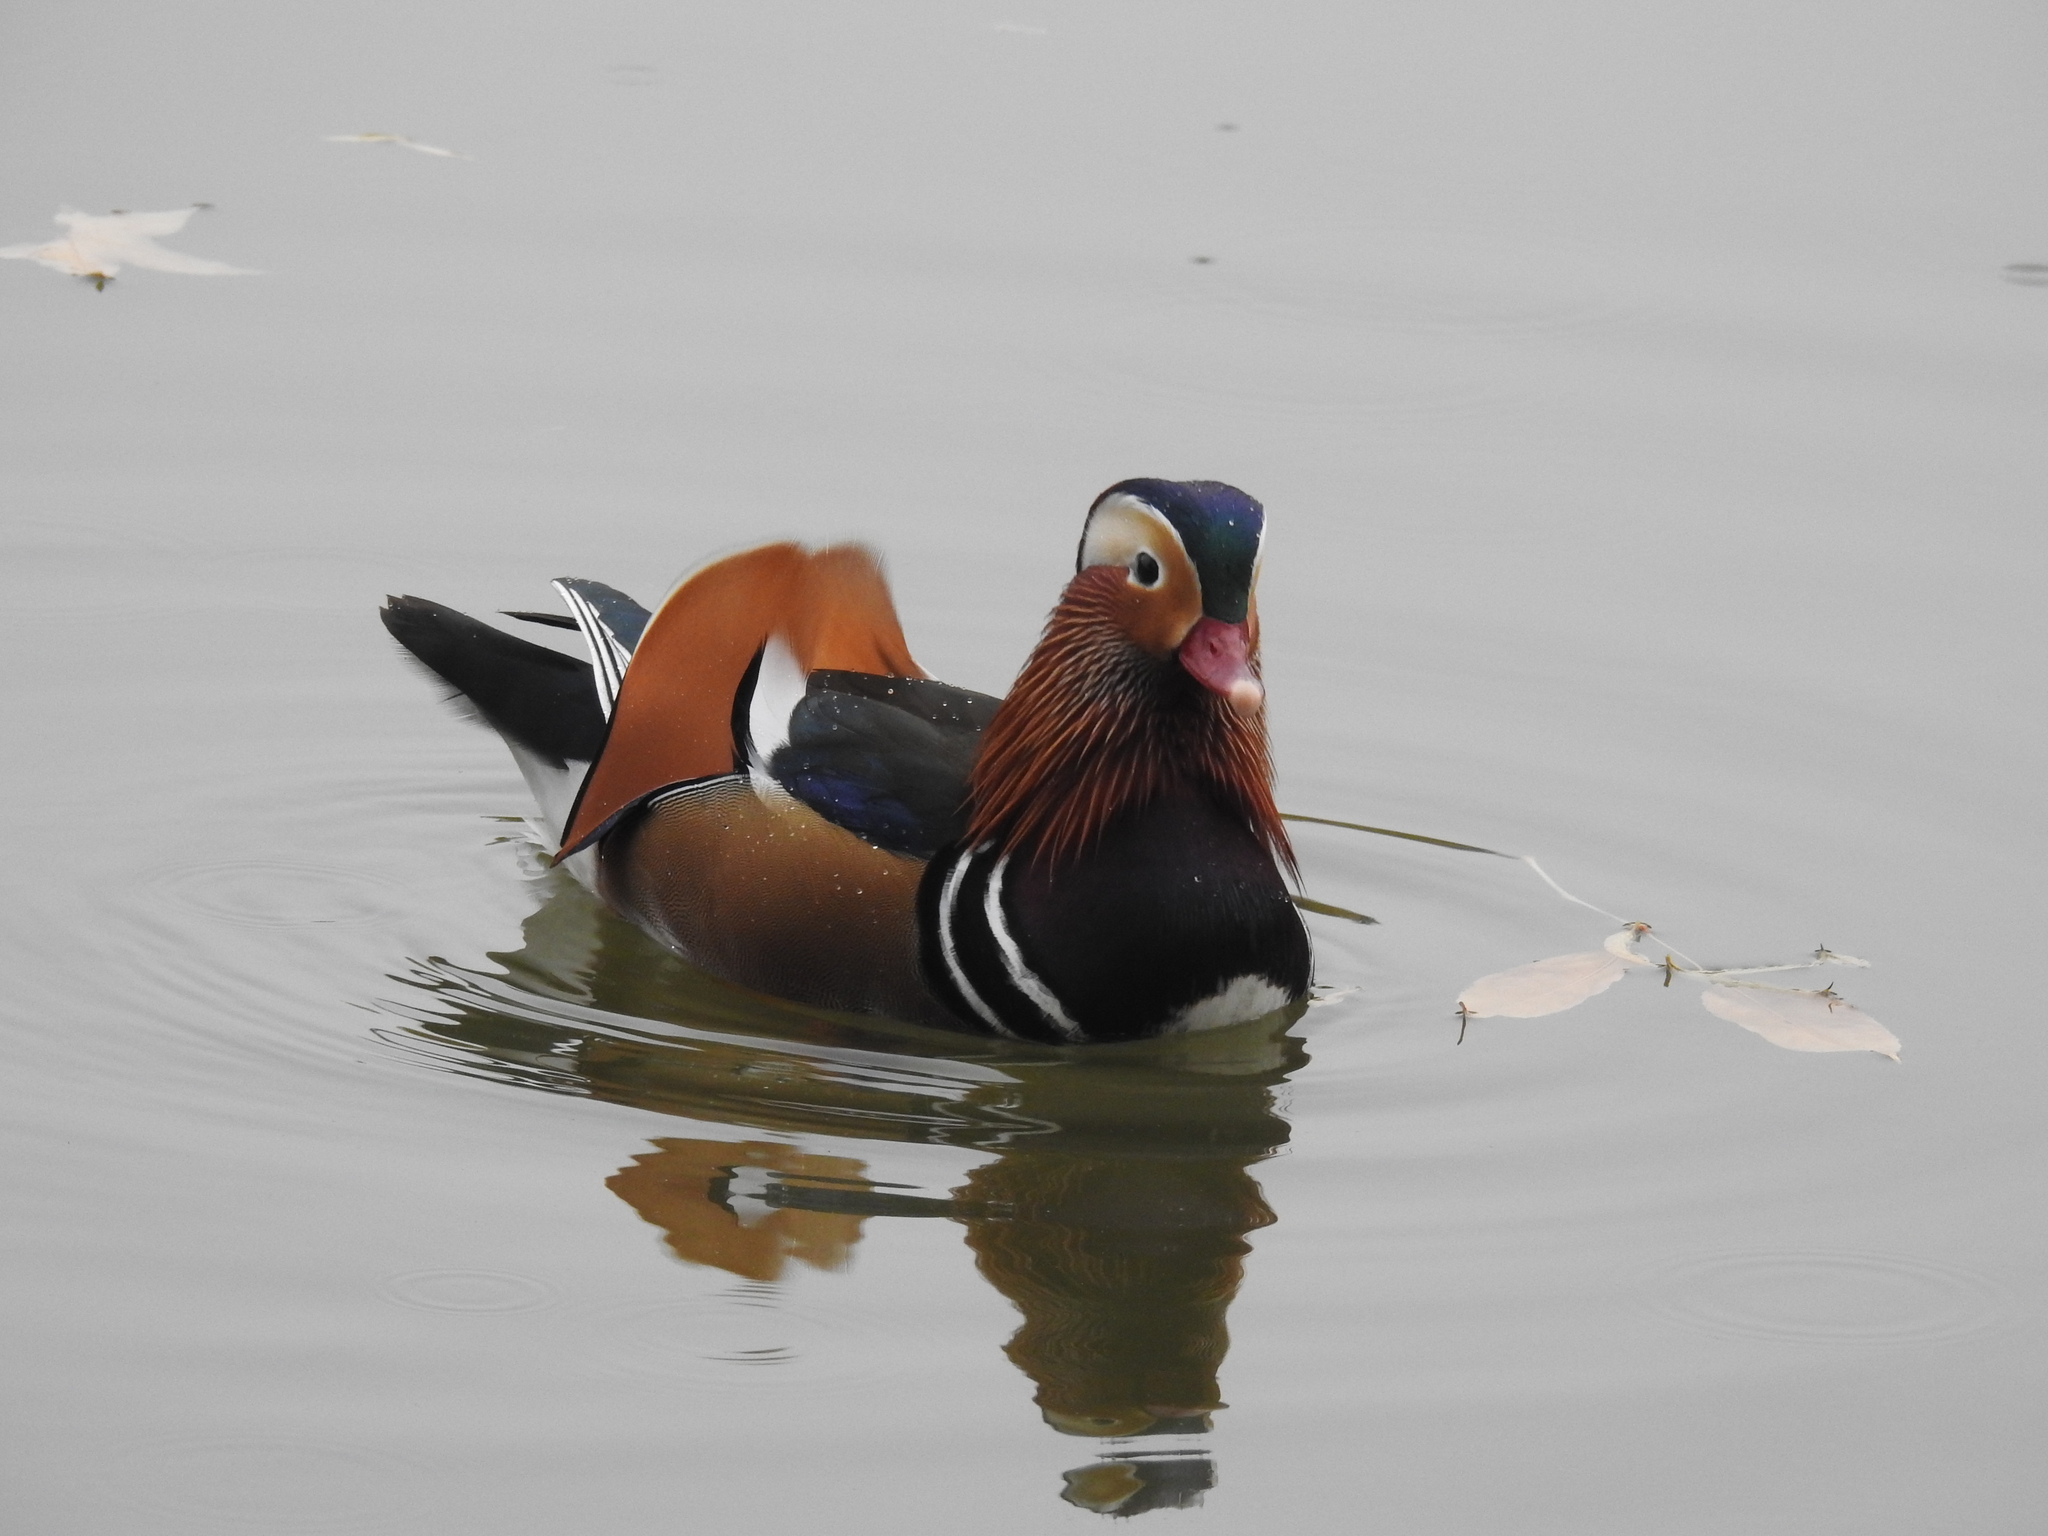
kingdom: Animalia
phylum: Chordata
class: Aves
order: Anseriformes
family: Anatidae
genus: Aix
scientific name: Aix galericulata
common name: Mandarin duck
